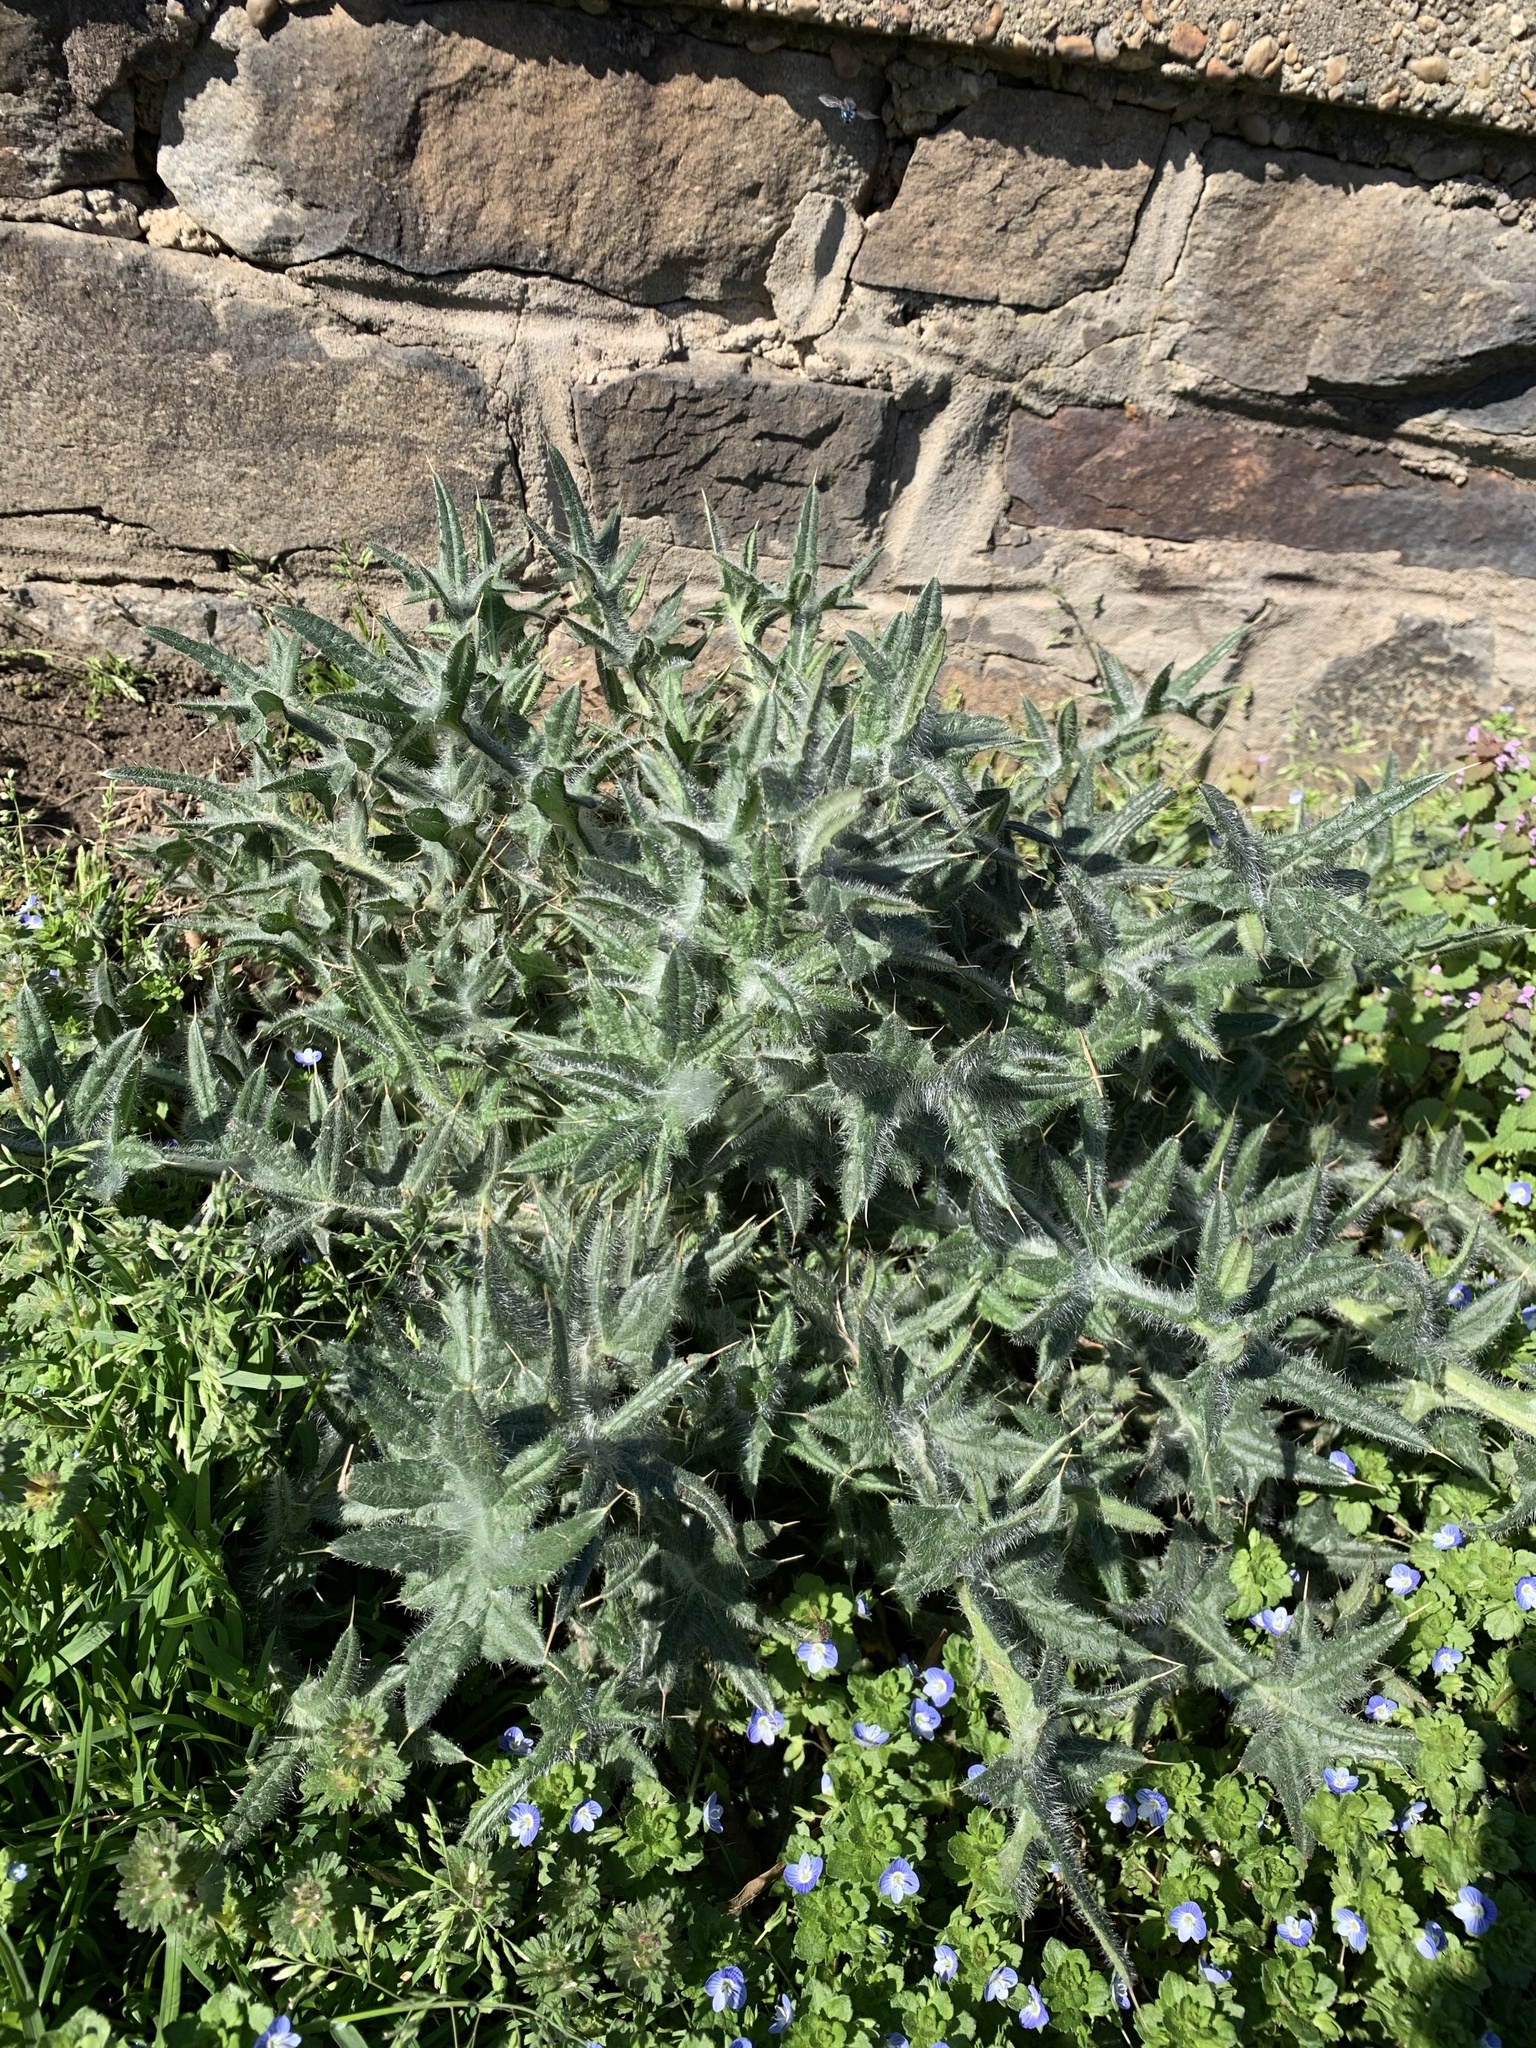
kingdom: Plantae
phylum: Tracheophyta
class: Magnoliopsida
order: Asterales
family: Asteraceae
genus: Cirsium
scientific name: Cirsium vulgare
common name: Bull thistle
